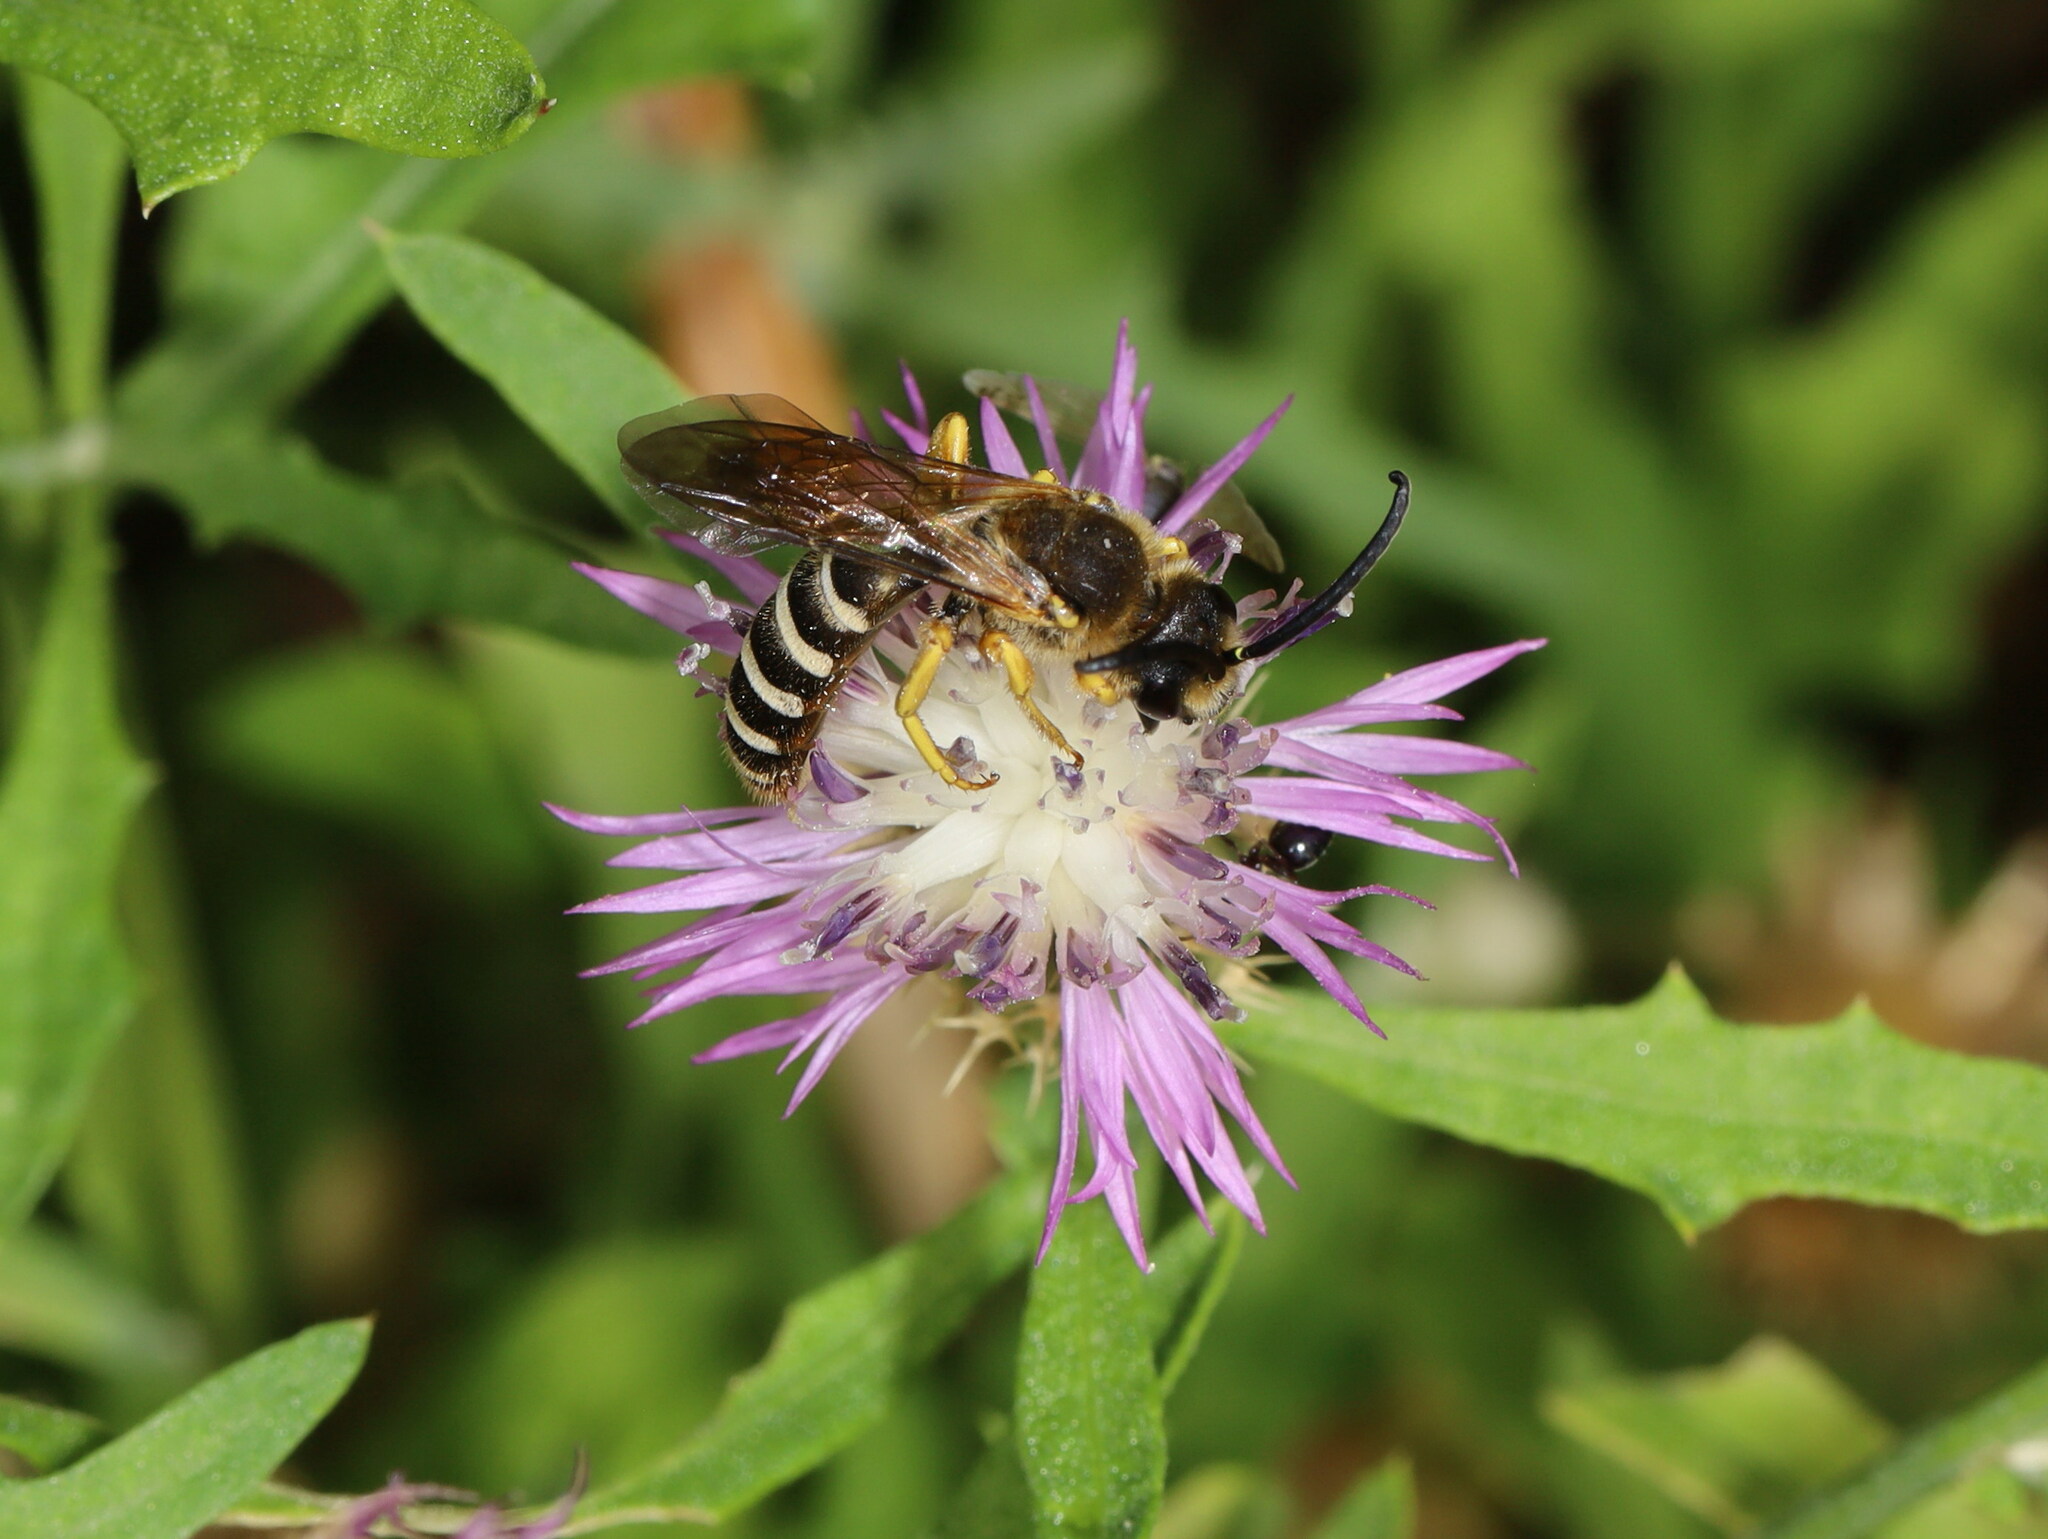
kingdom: Animalia
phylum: Arthropoda
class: Insecta
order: Hymenoptera
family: Halictidae
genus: Halictus
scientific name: Halictus fulvipes
